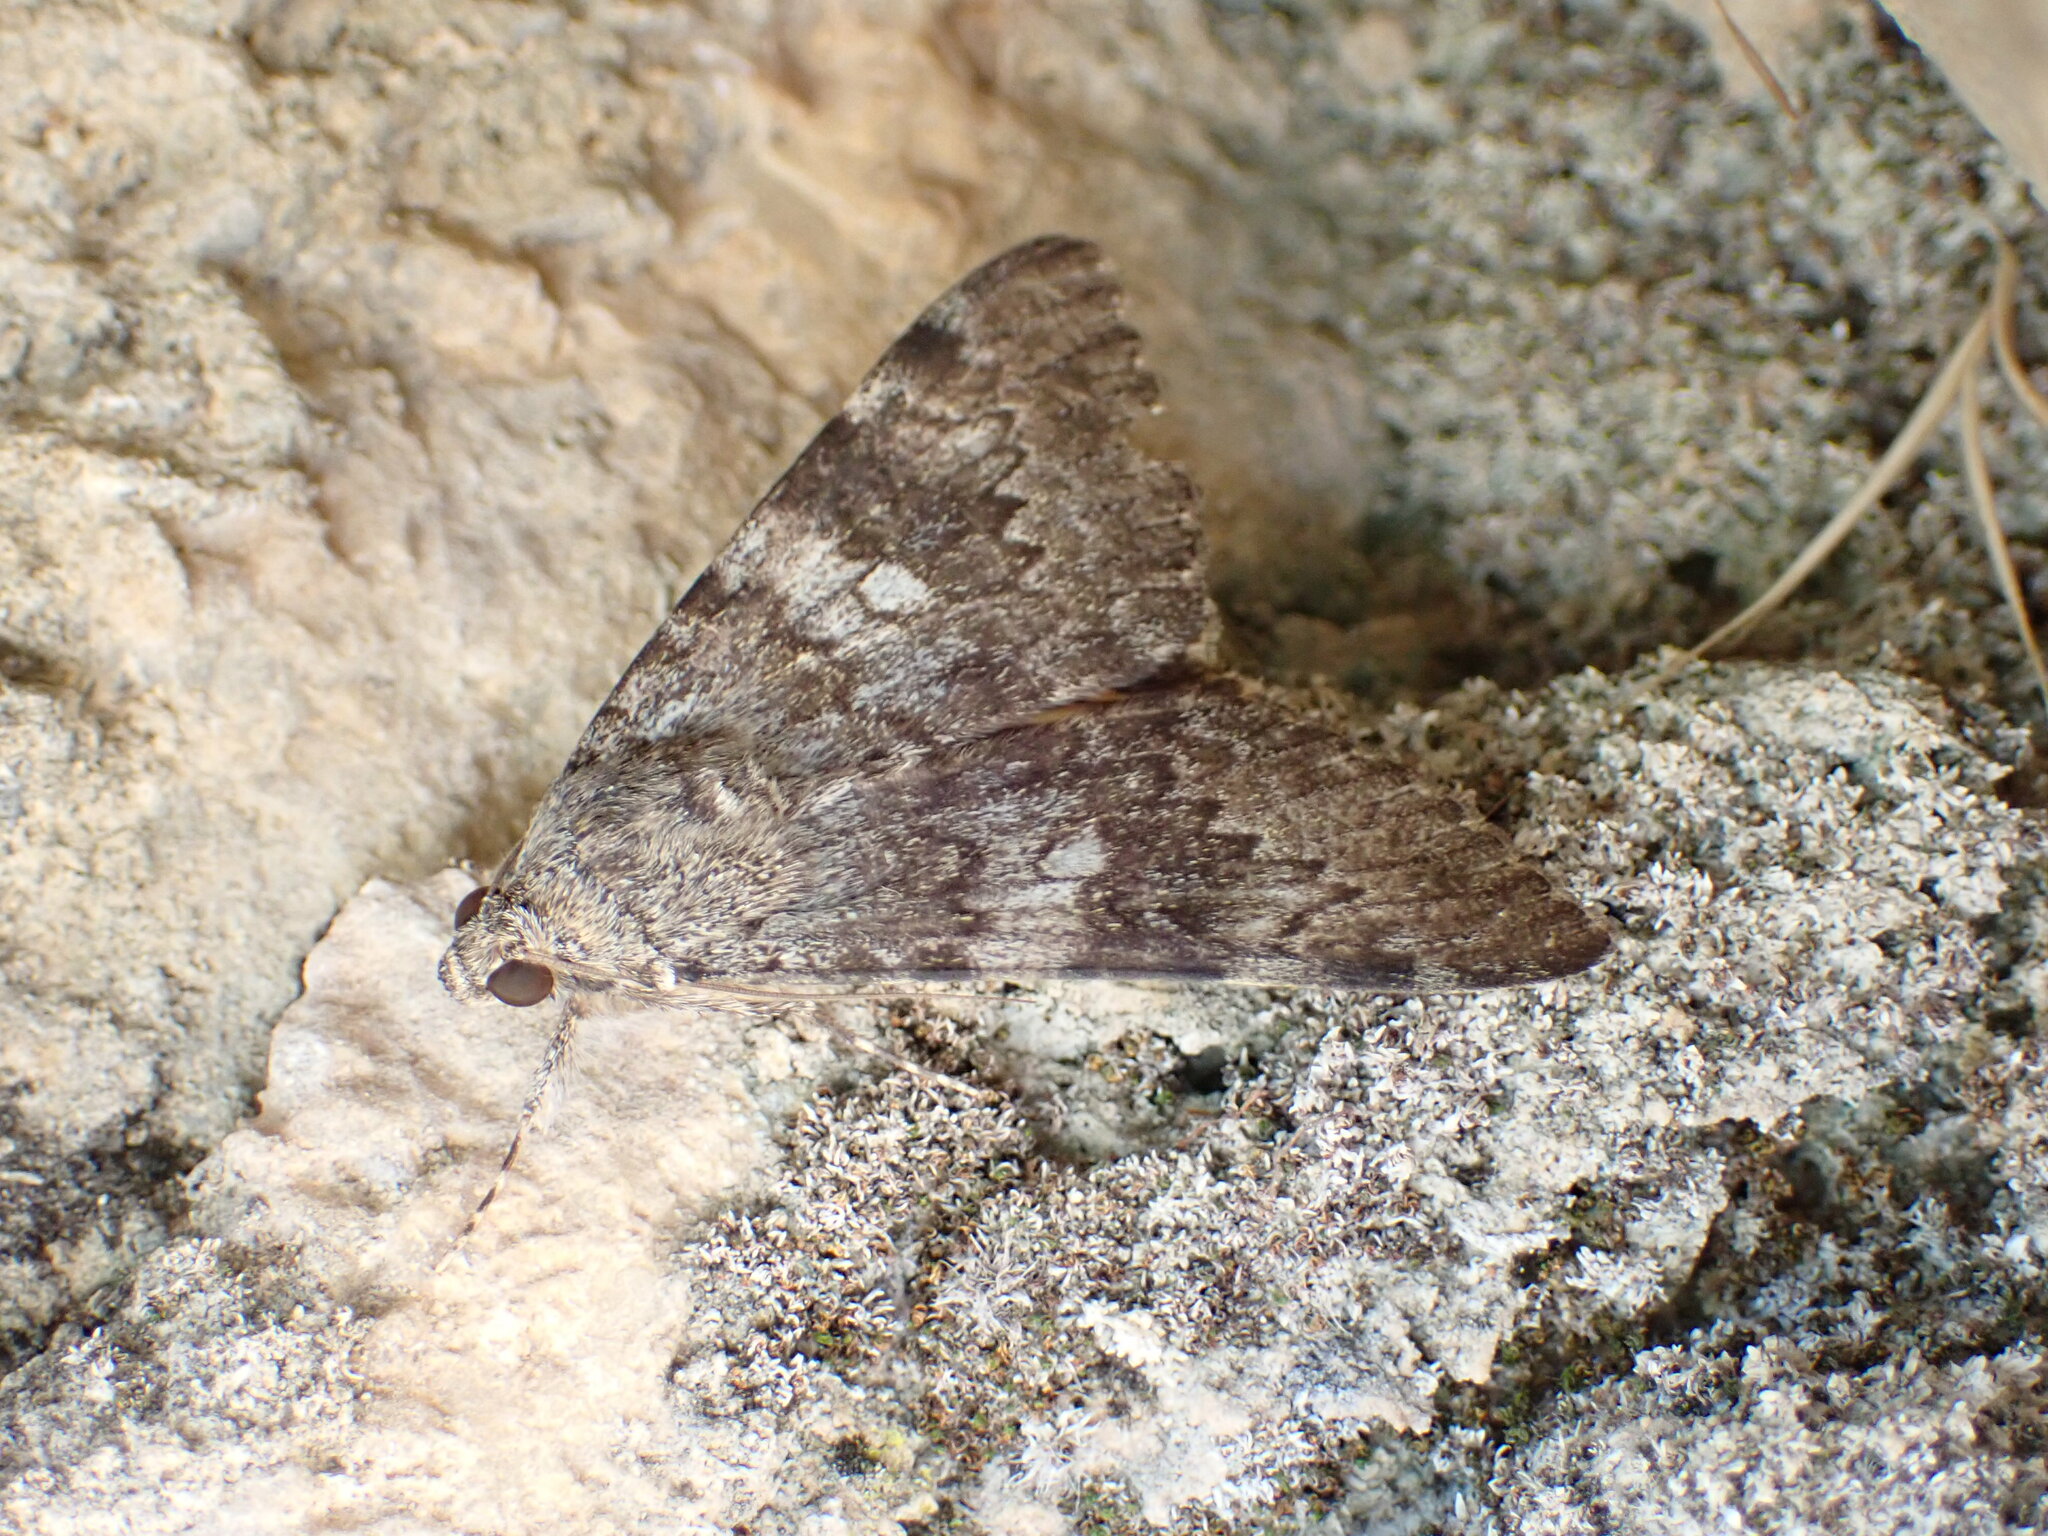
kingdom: Animalia
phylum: Arthropoda
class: Insecta
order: Lepidoptera
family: Erebidae
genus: Catocala
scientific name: Catocala nymphaea
